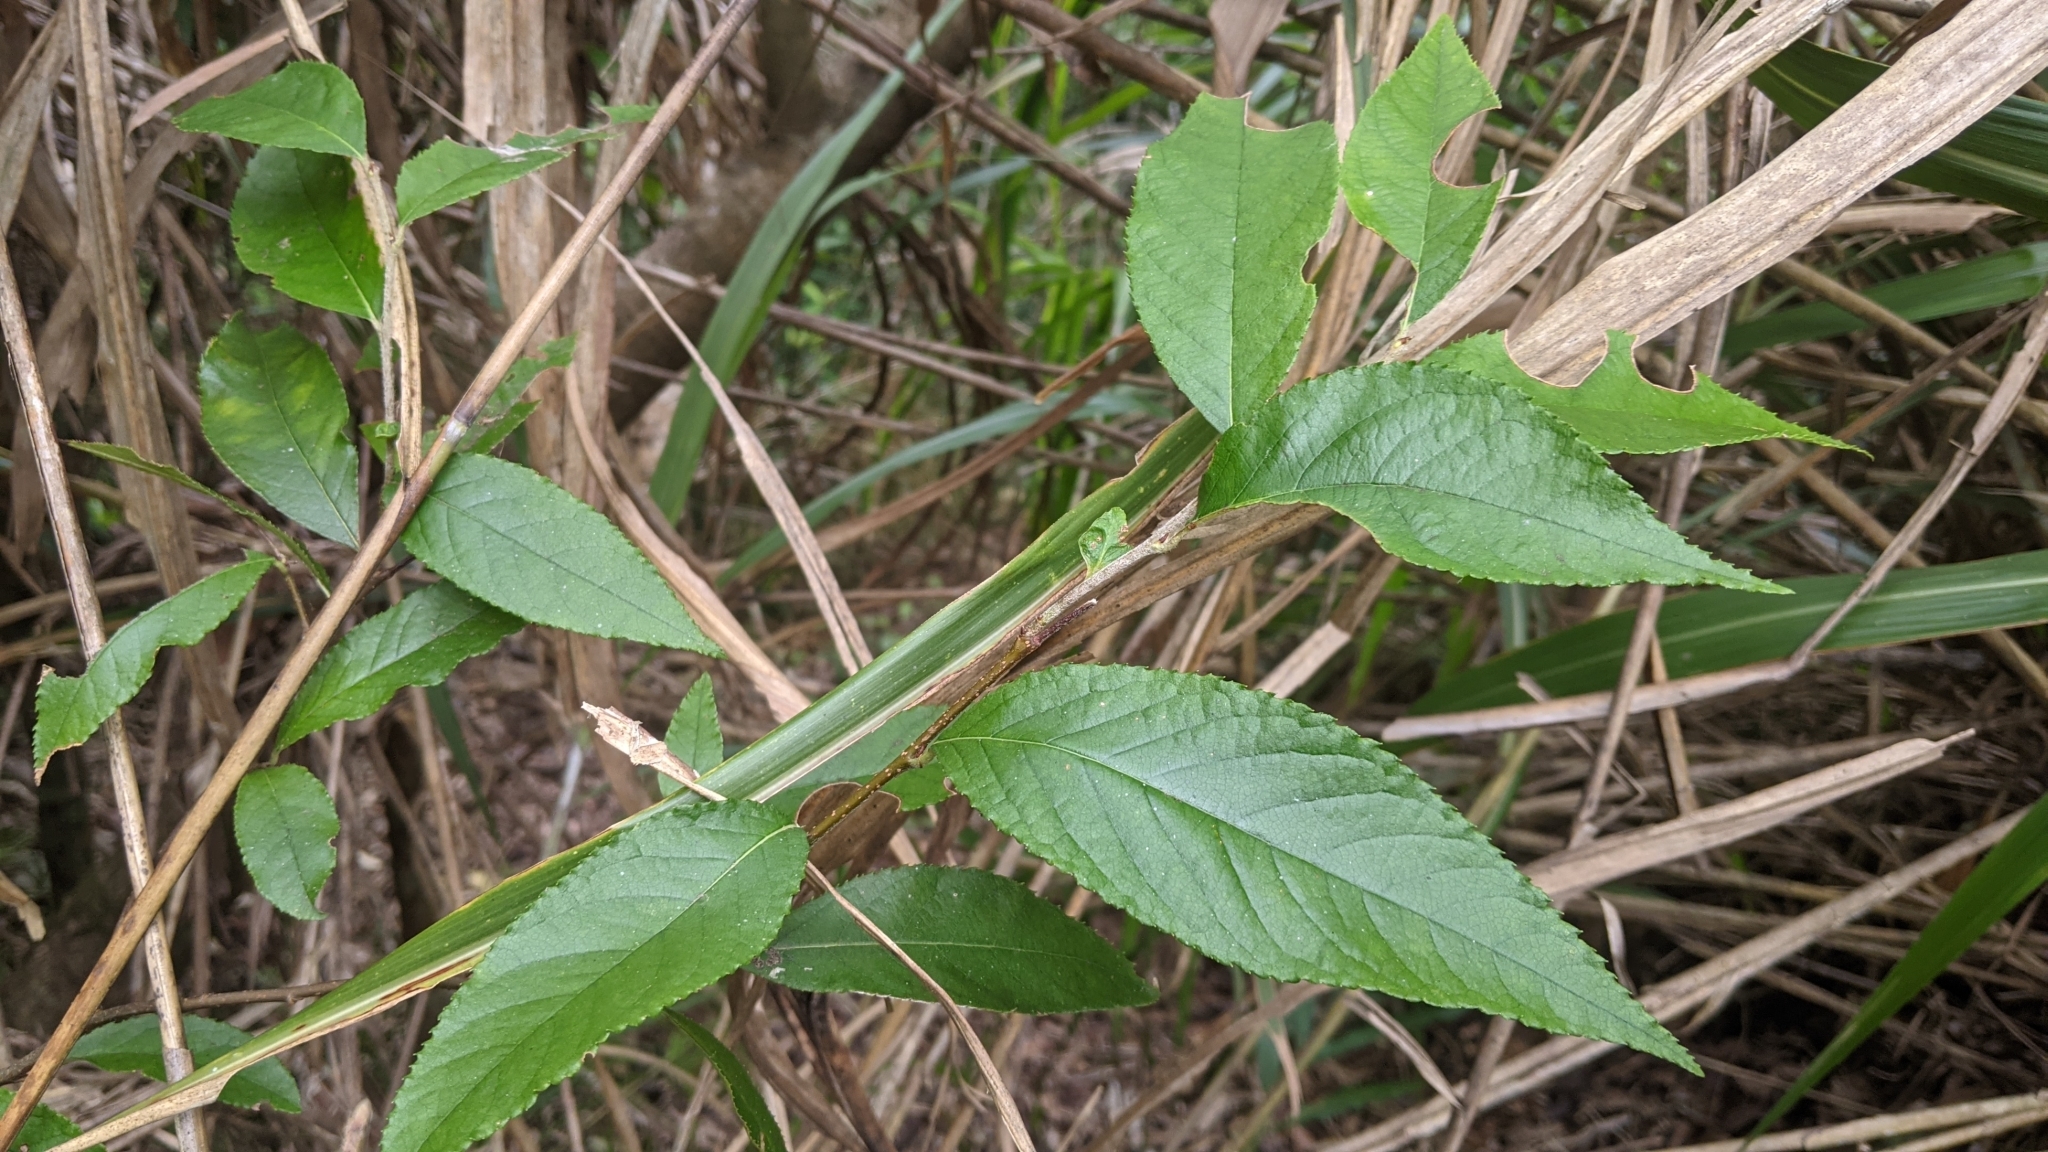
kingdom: Plantae
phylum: Tracheophyta
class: Magnoliopsida
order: Rosales
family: Rosaceae
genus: Pourthiaea
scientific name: Pourthiaea beauverdiana
